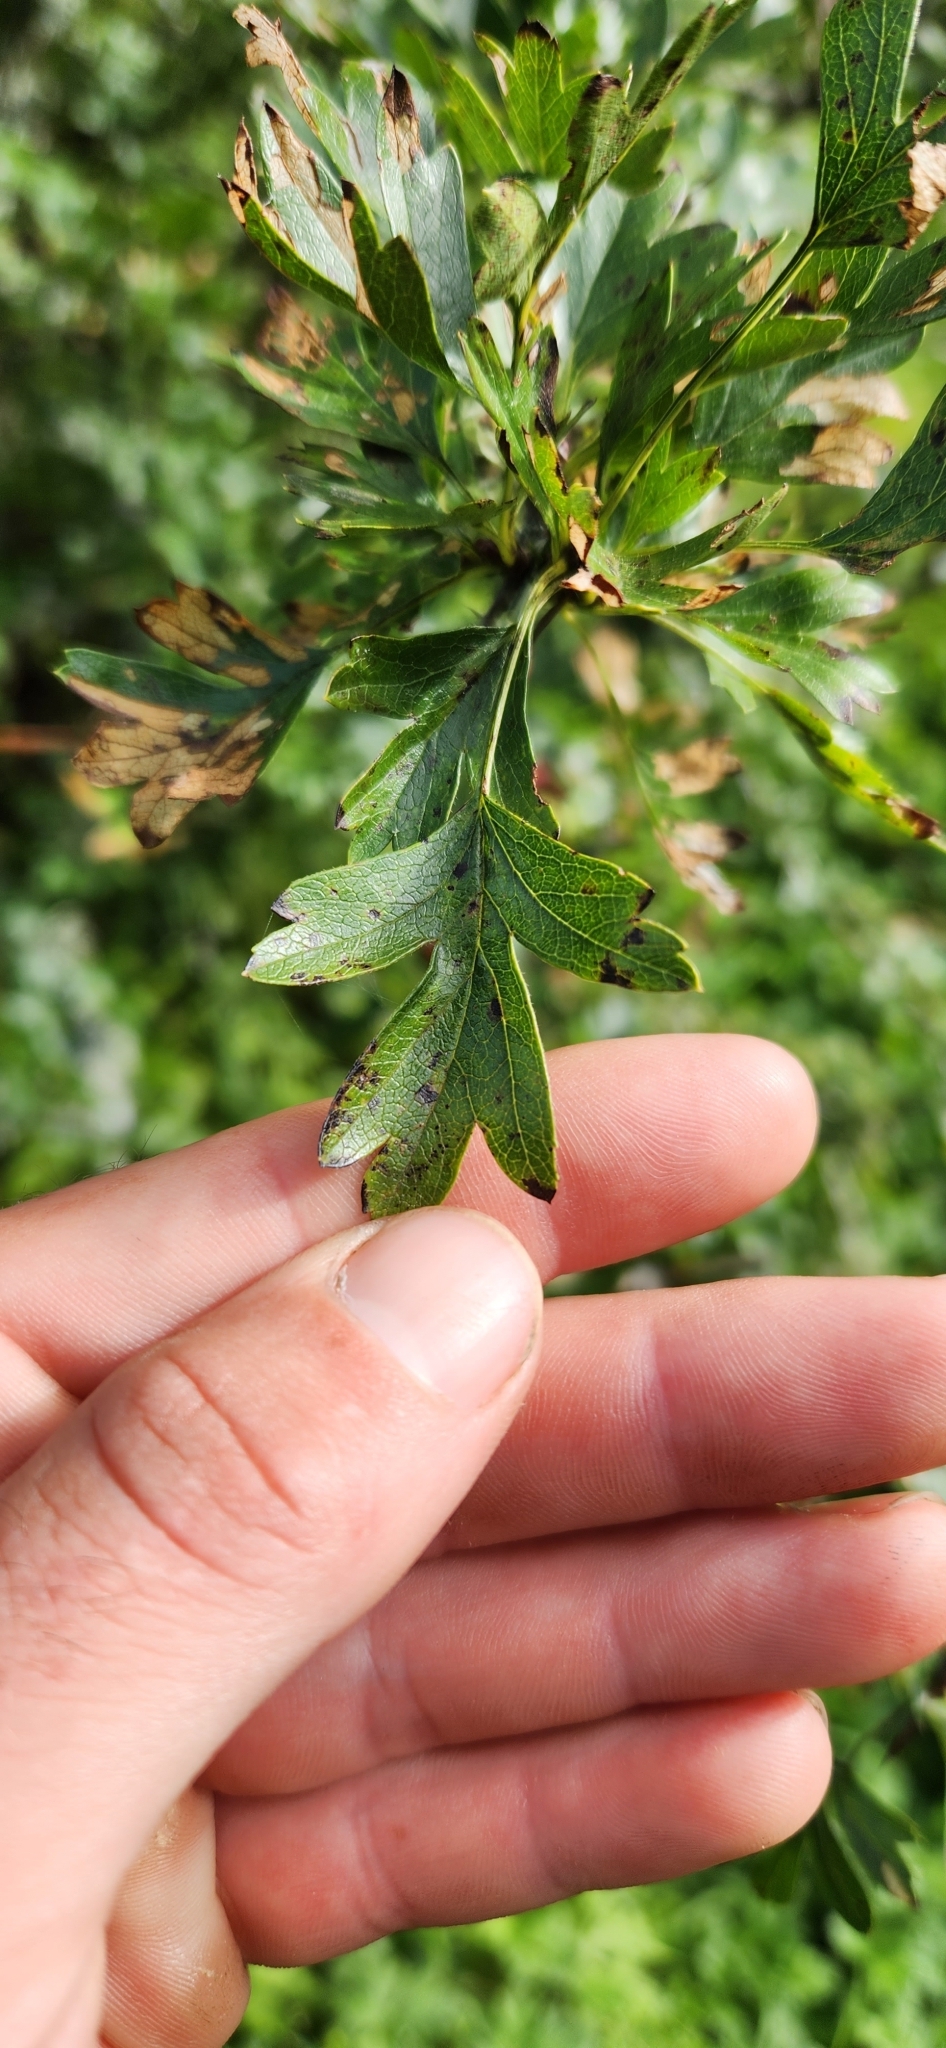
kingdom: Plantae
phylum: Tracheophyta
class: Magnoliopsida
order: Rosales
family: Rosaceae
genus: Crataegus
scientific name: Crataegus monogyna
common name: Hawthorn
